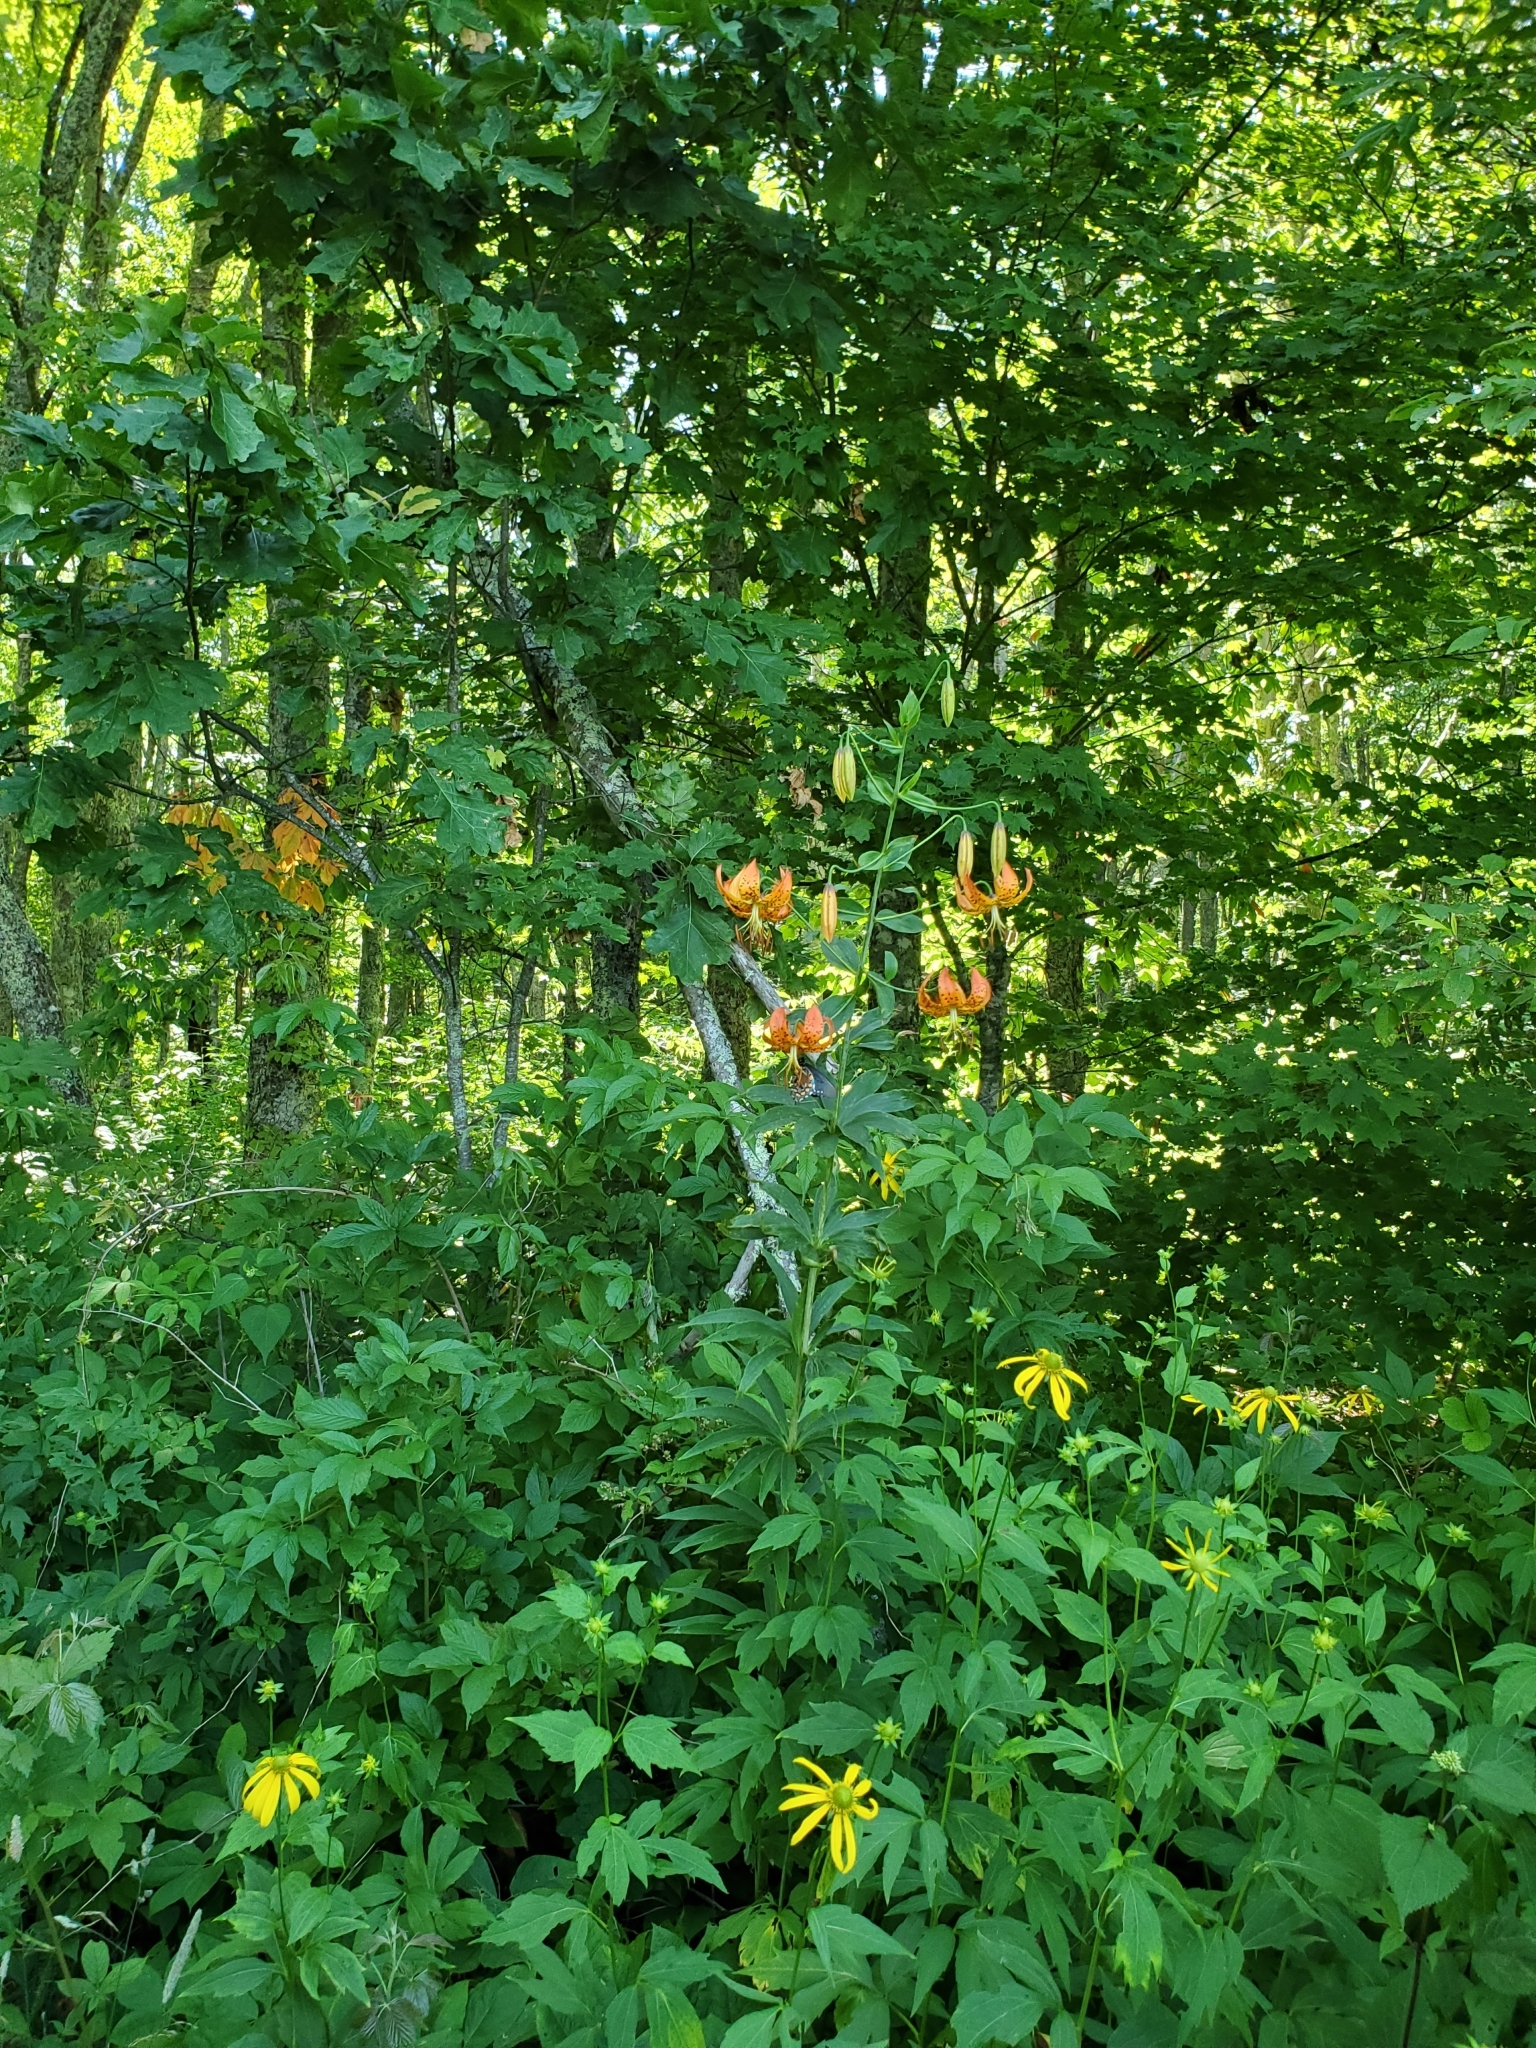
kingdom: Plantae
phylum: Tracheophyta
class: Liliopsida
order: Liliales
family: Liliaceae
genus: Lilium
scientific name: Lilium superbum
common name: American turk's-cap lily
